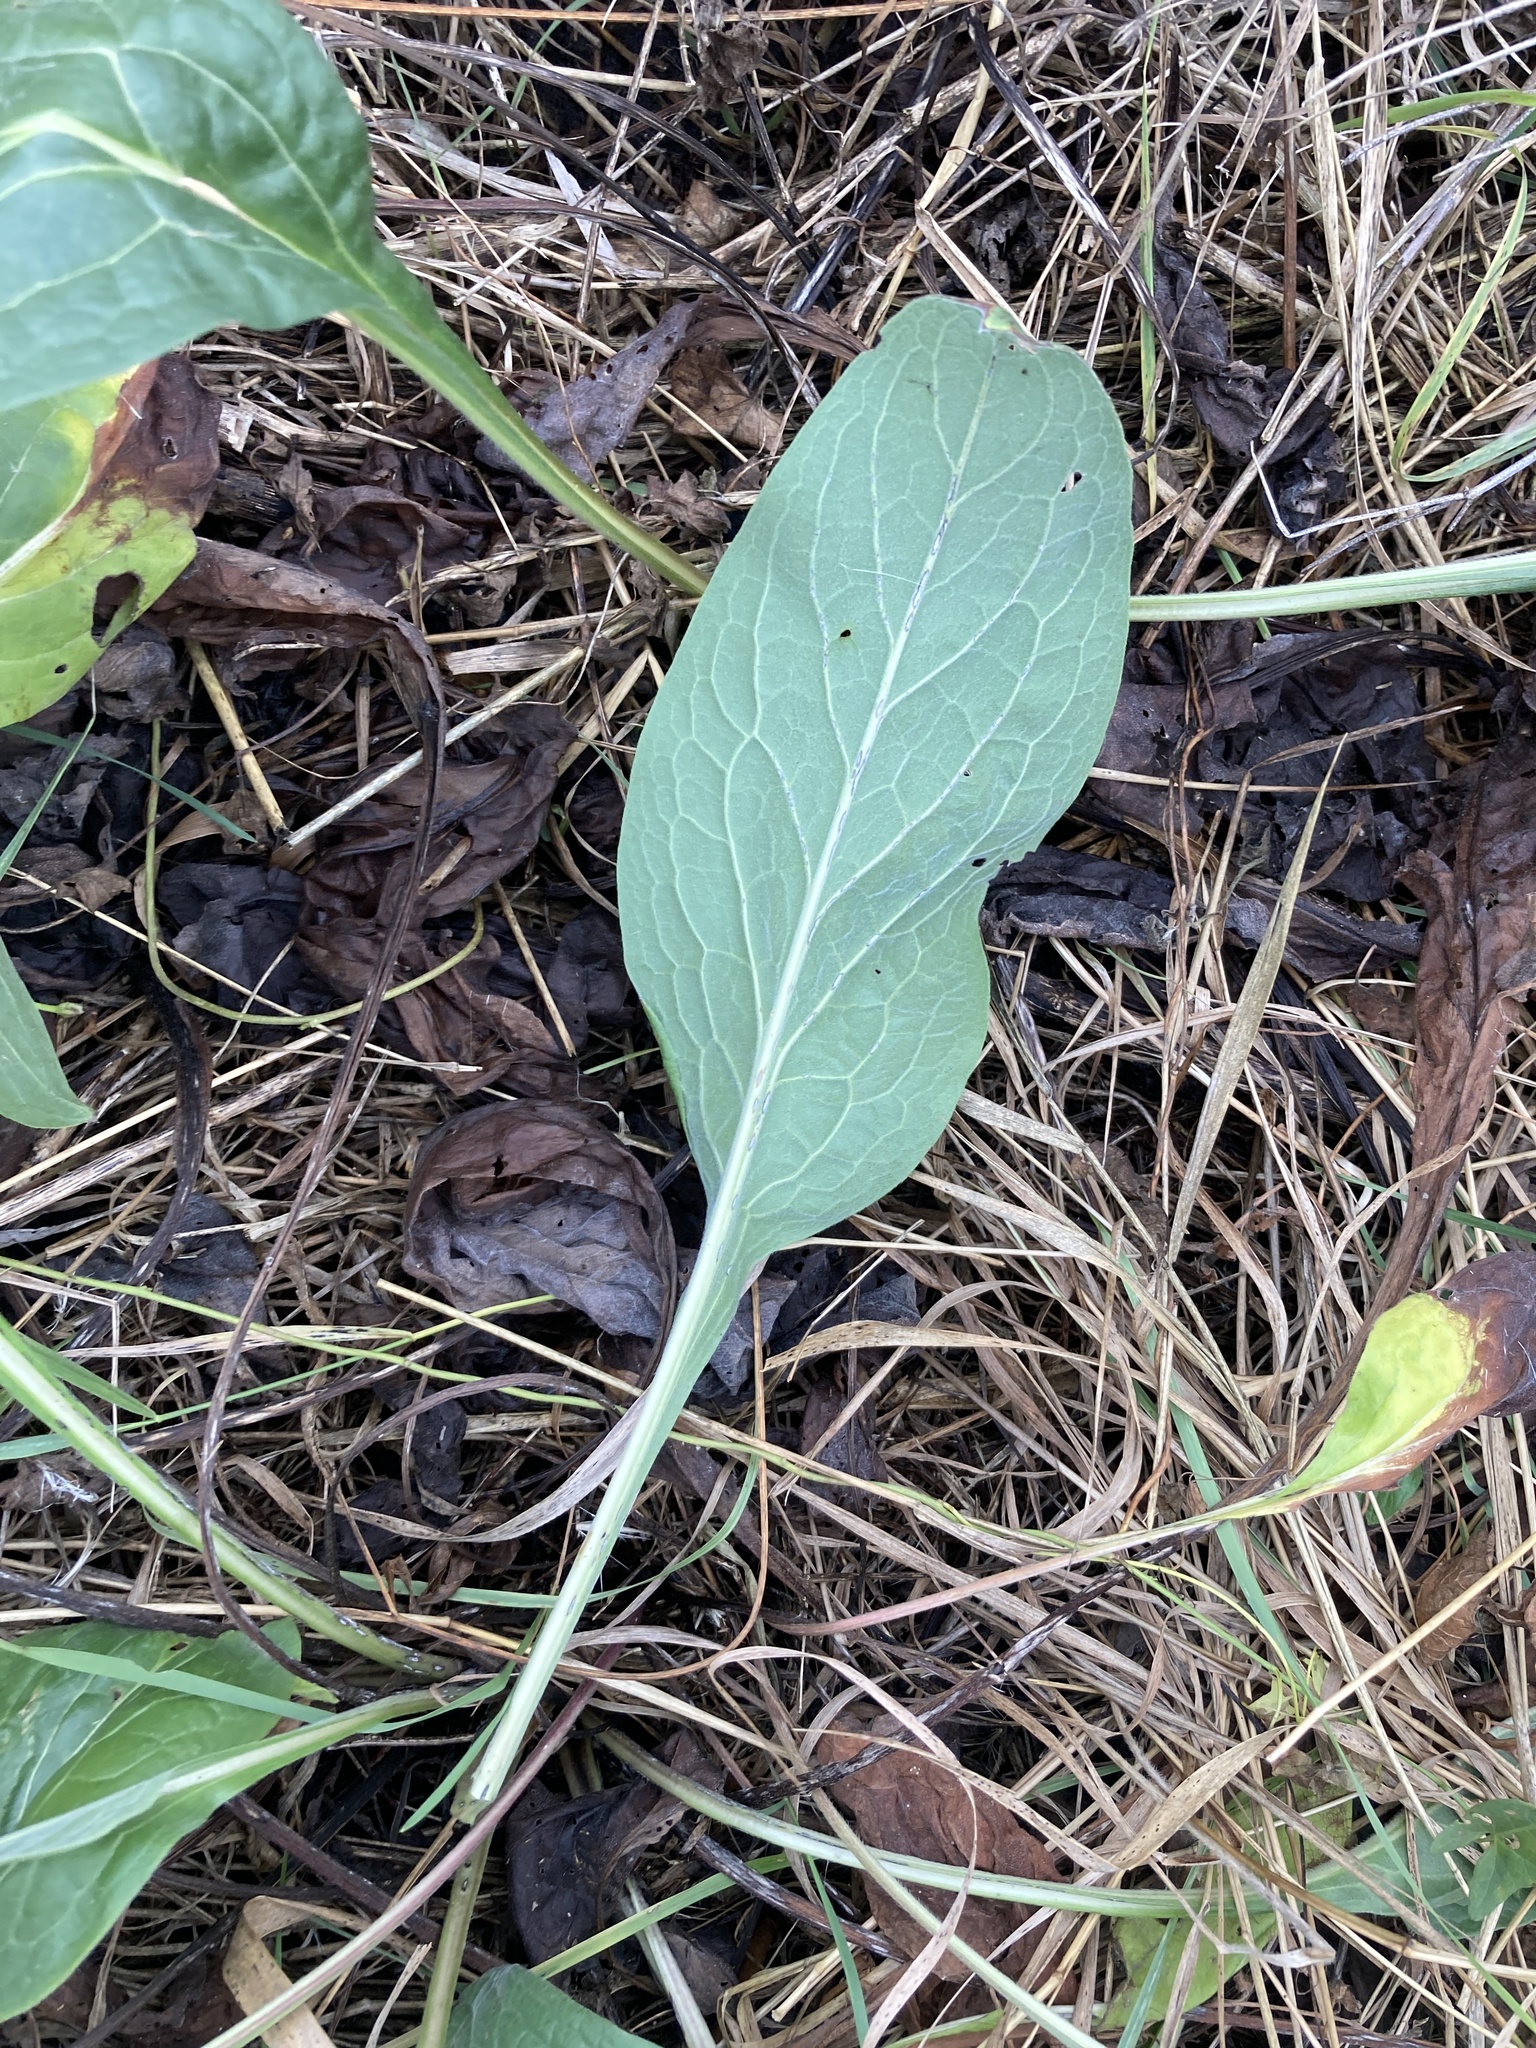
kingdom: Plantae
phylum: Tracheophyta
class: Magnoliopsida
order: Boraginales
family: Boraginaceae
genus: Cynoglossum
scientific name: Cynoglossum officinale
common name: Hound's-tongue
